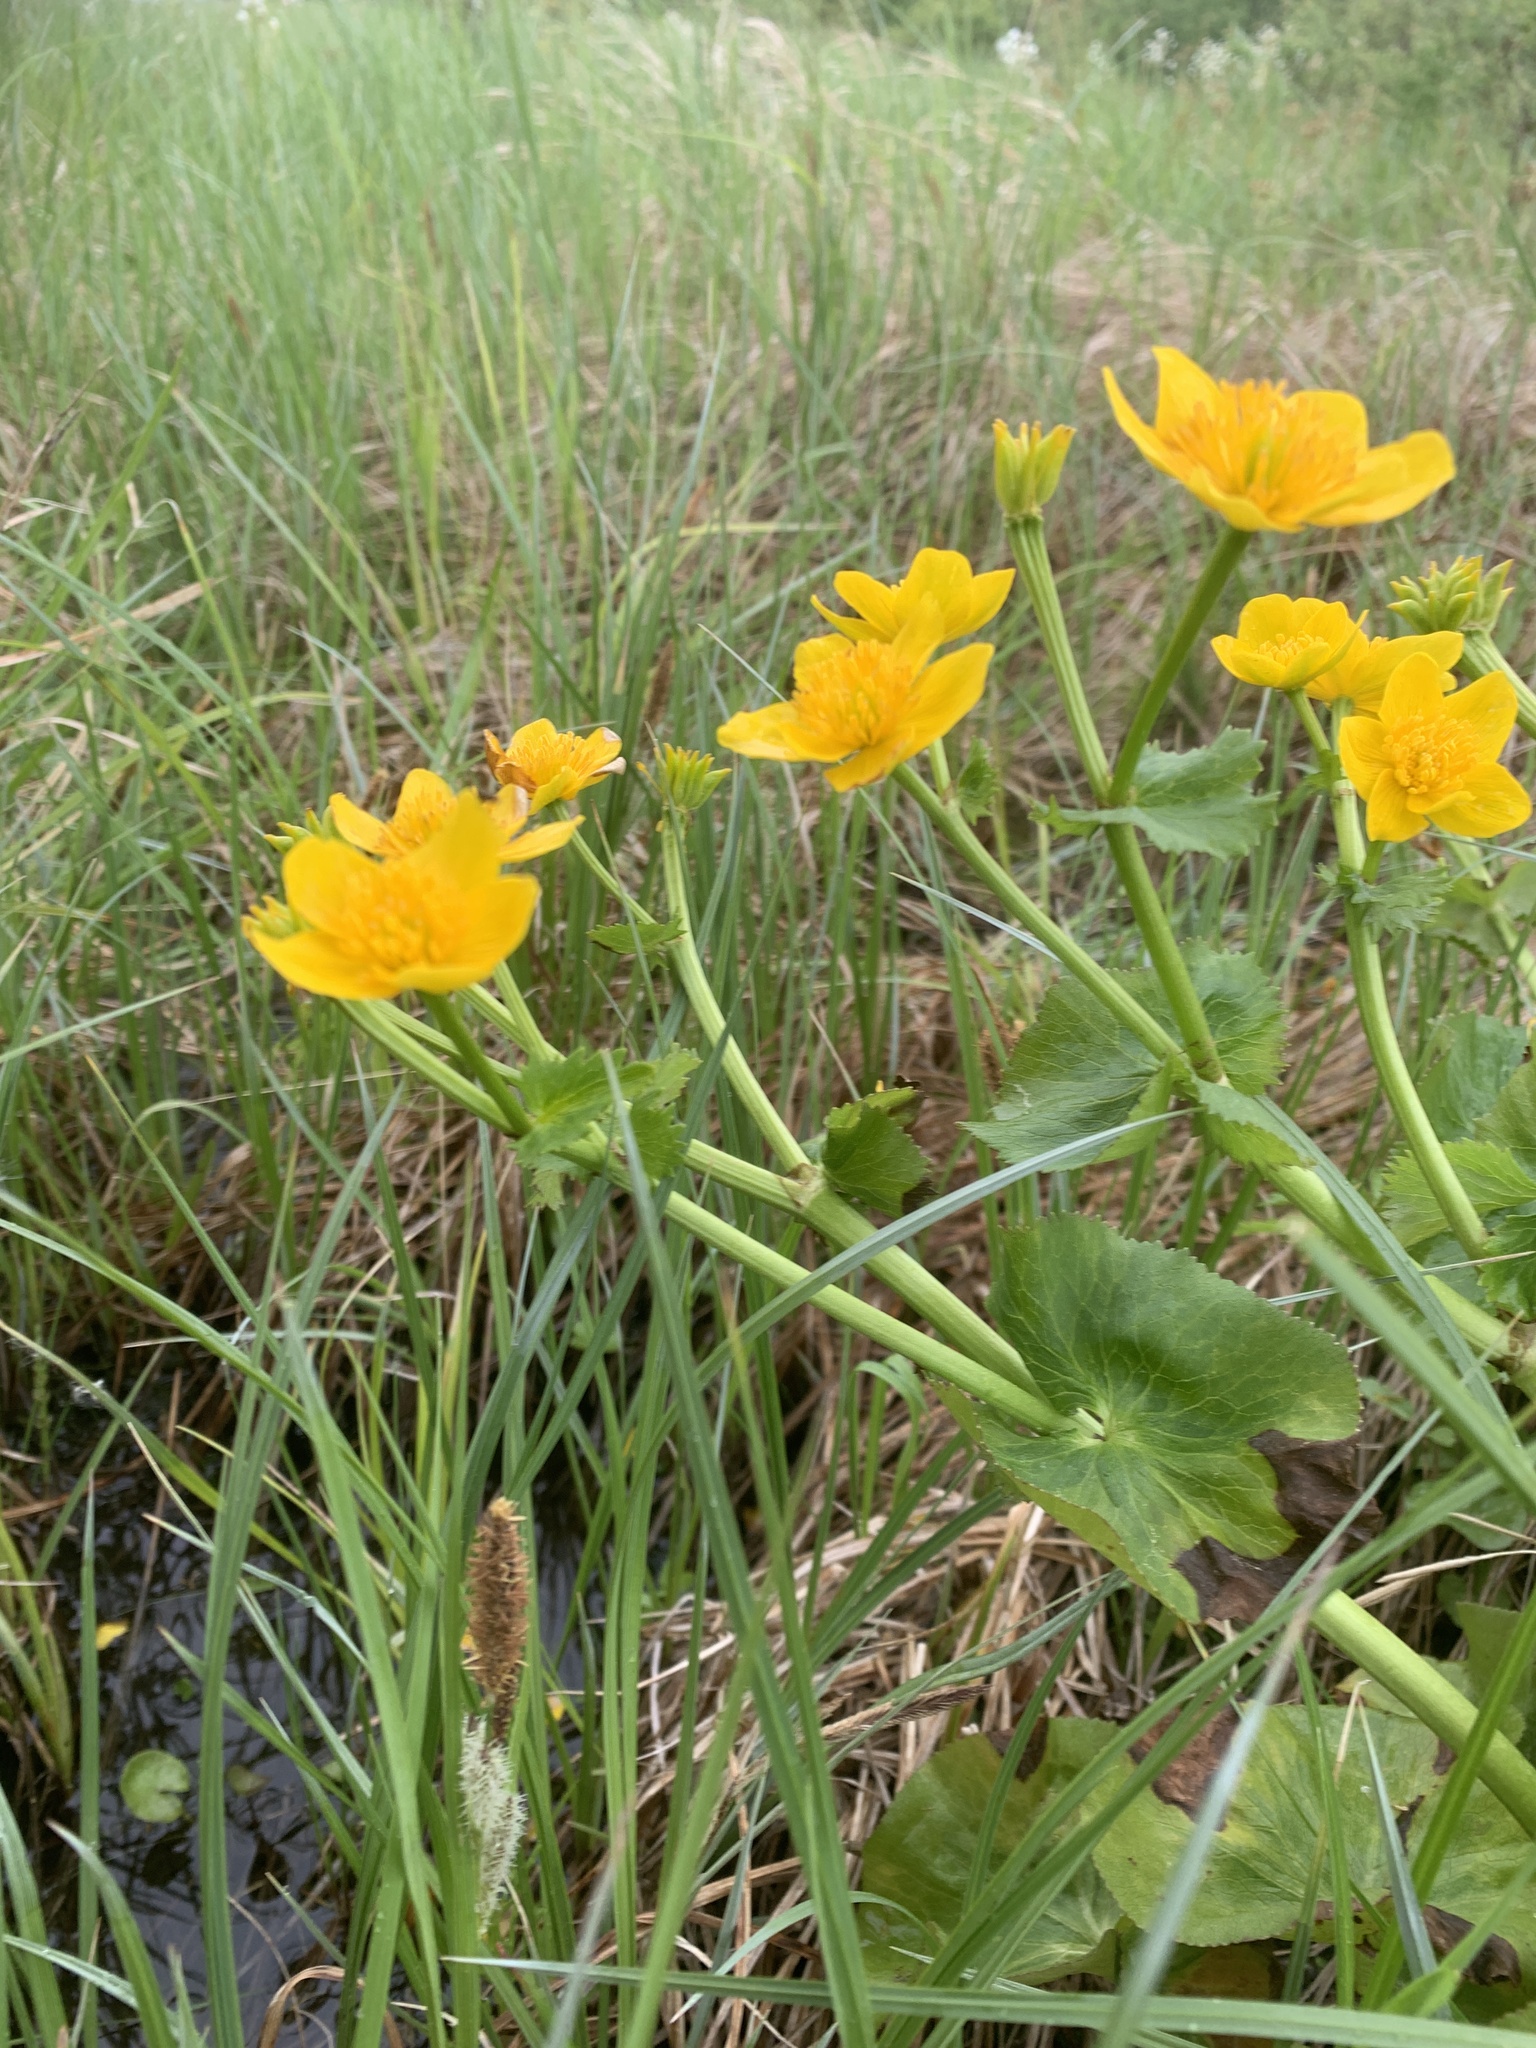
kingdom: Plantae
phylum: Tracheophyta
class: Magnoliopsida
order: Ranunculales
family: Ranunculaceae
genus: Caltha
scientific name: Caltha palustris
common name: Marsh marigold
